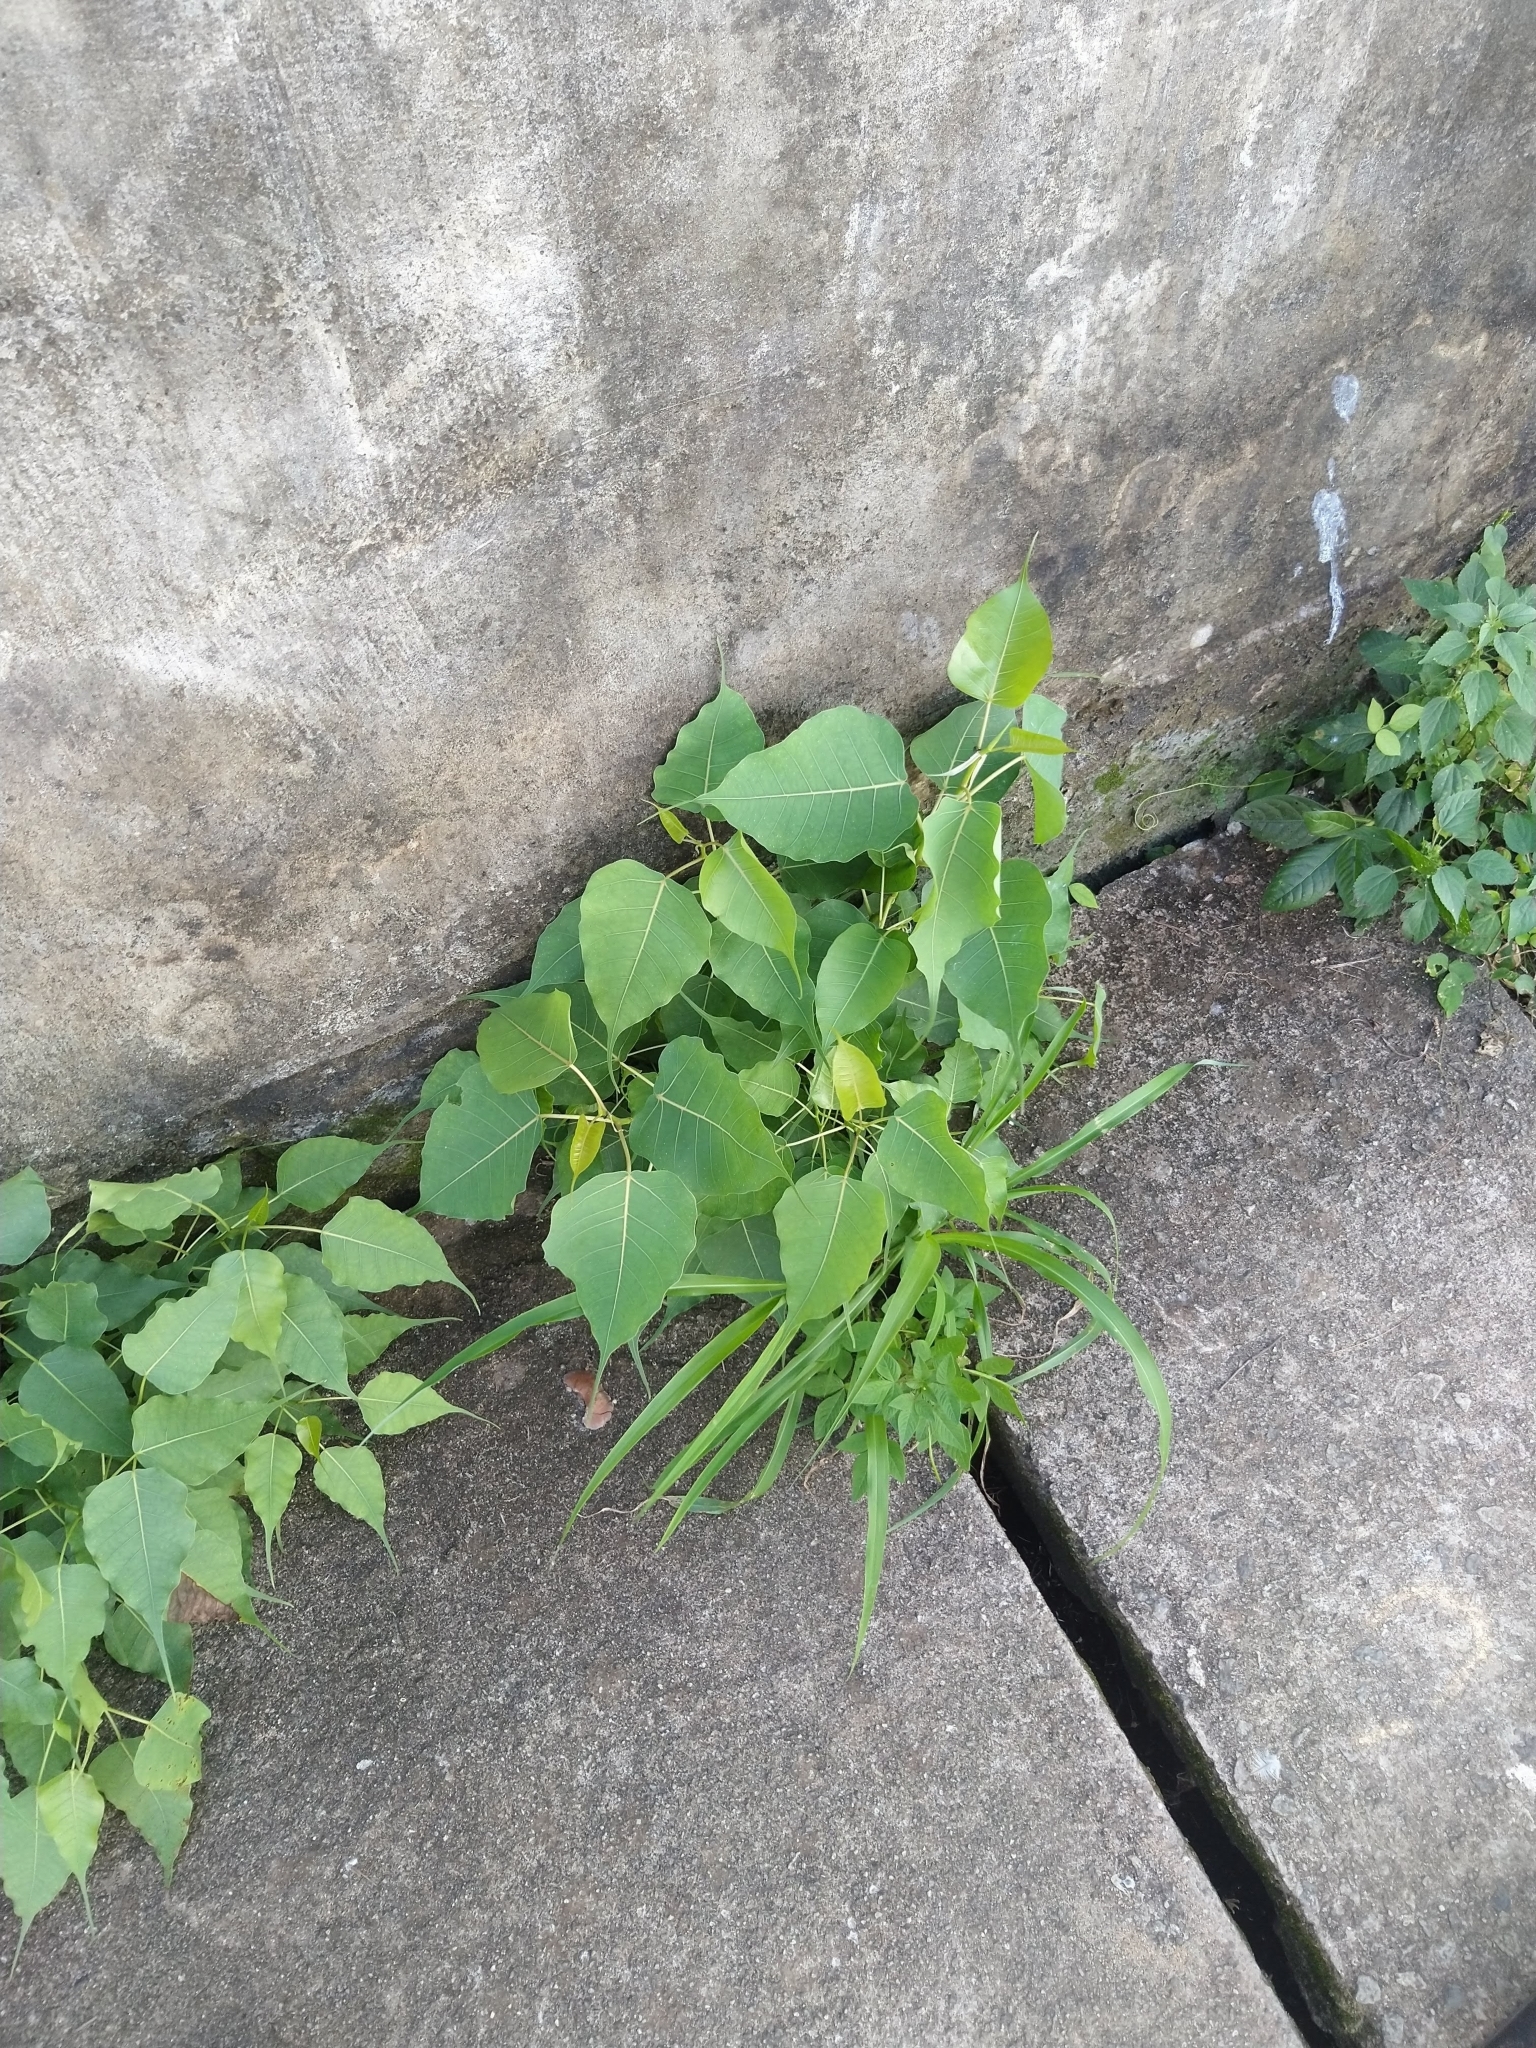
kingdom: Plantae
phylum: Tracheophyta
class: Magnoliopsida
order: Rosales
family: Moraceae
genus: Ficus
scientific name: Ficus religiosa
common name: Bodhi tree
